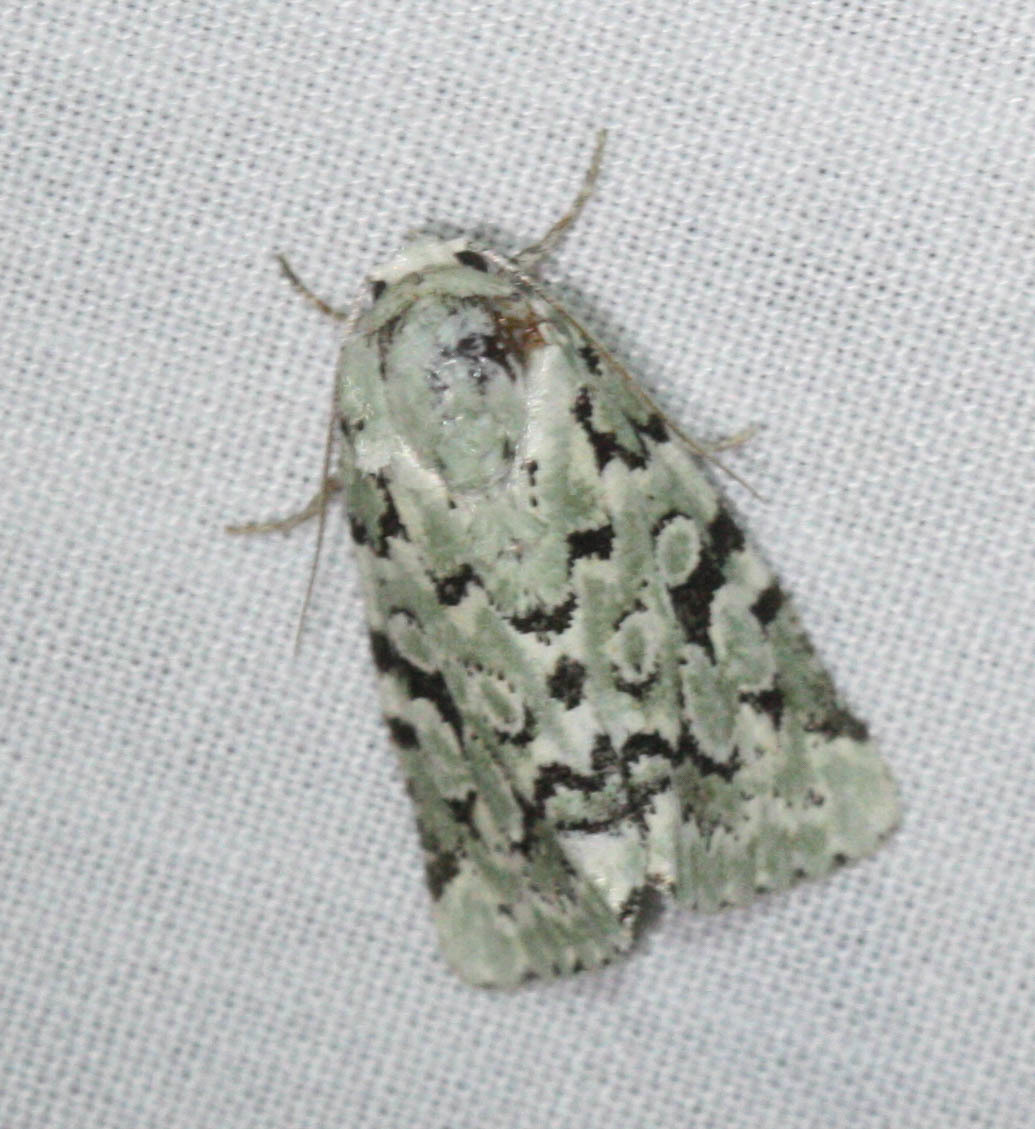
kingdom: Animalia
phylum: Arthropoda
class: Insecta
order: Lepidoptera
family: Noctuidae
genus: Bryolymnia
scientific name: Bryolymnia viridata
